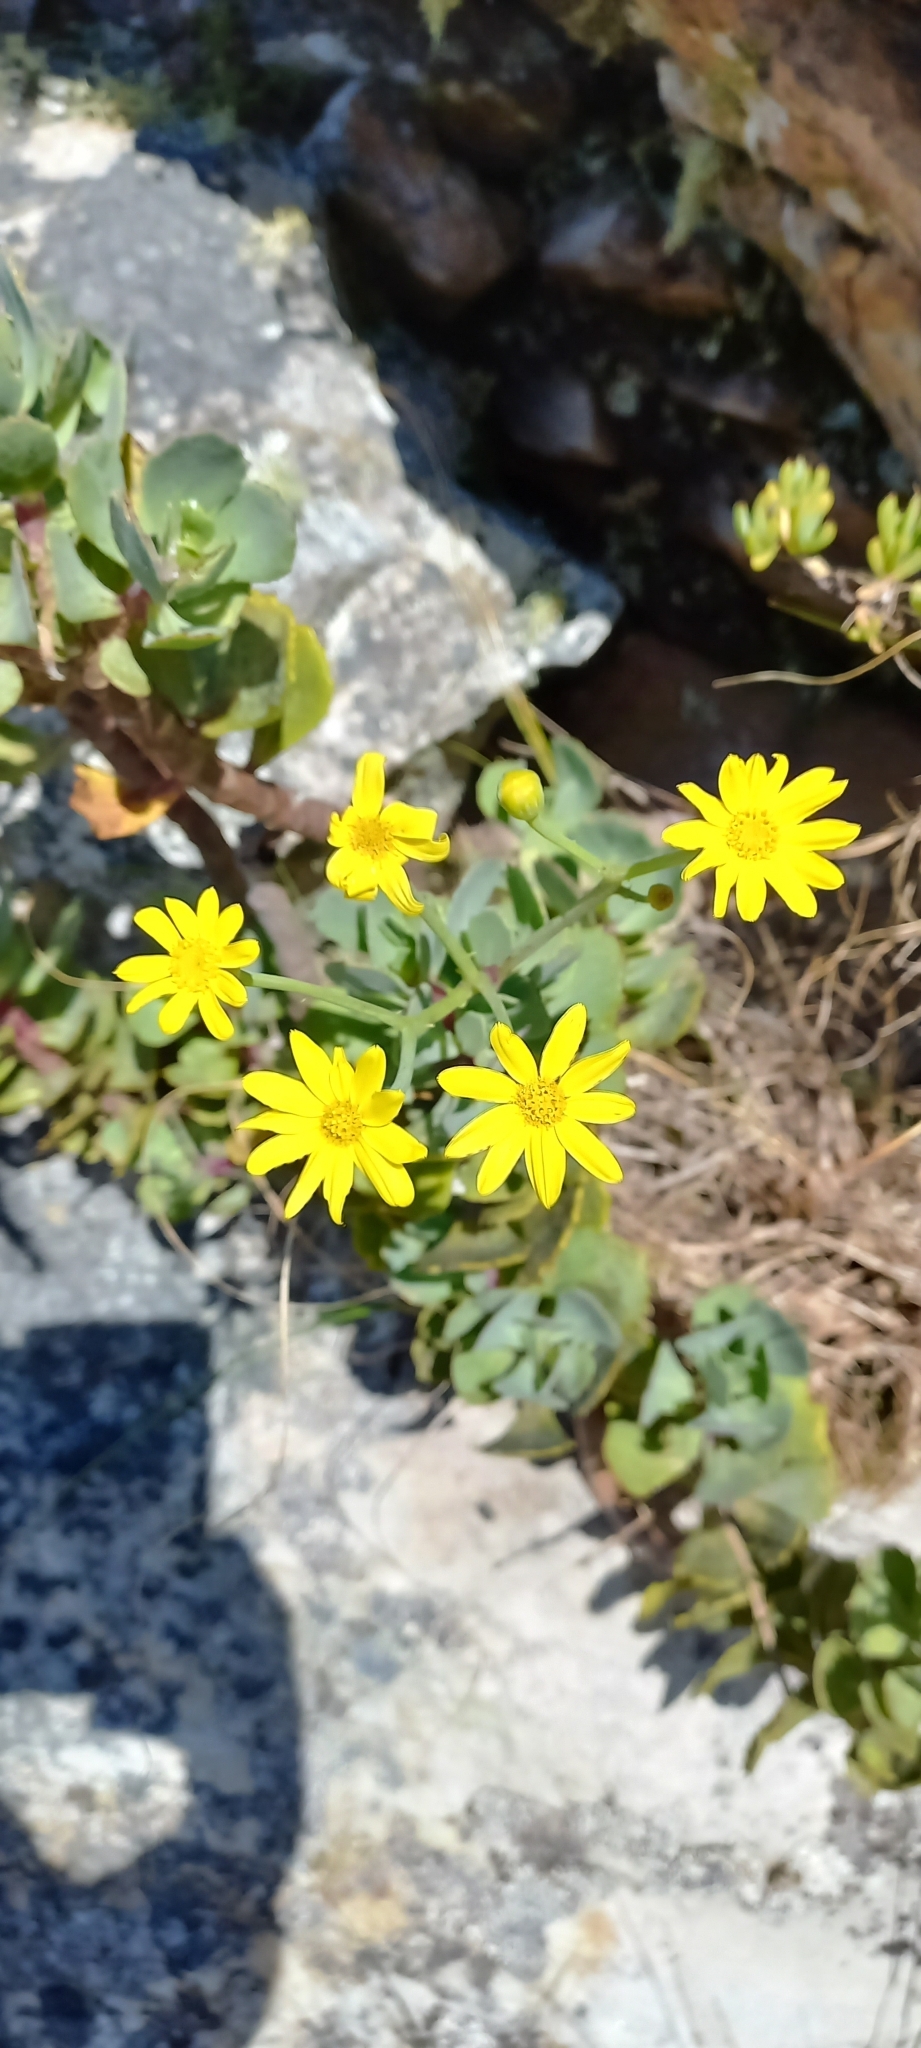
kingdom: Plantae
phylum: Tracheophyta
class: Magnoliopsida
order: Asterales
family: Asteraceae
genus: Othonna
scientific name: Othonna dentata
